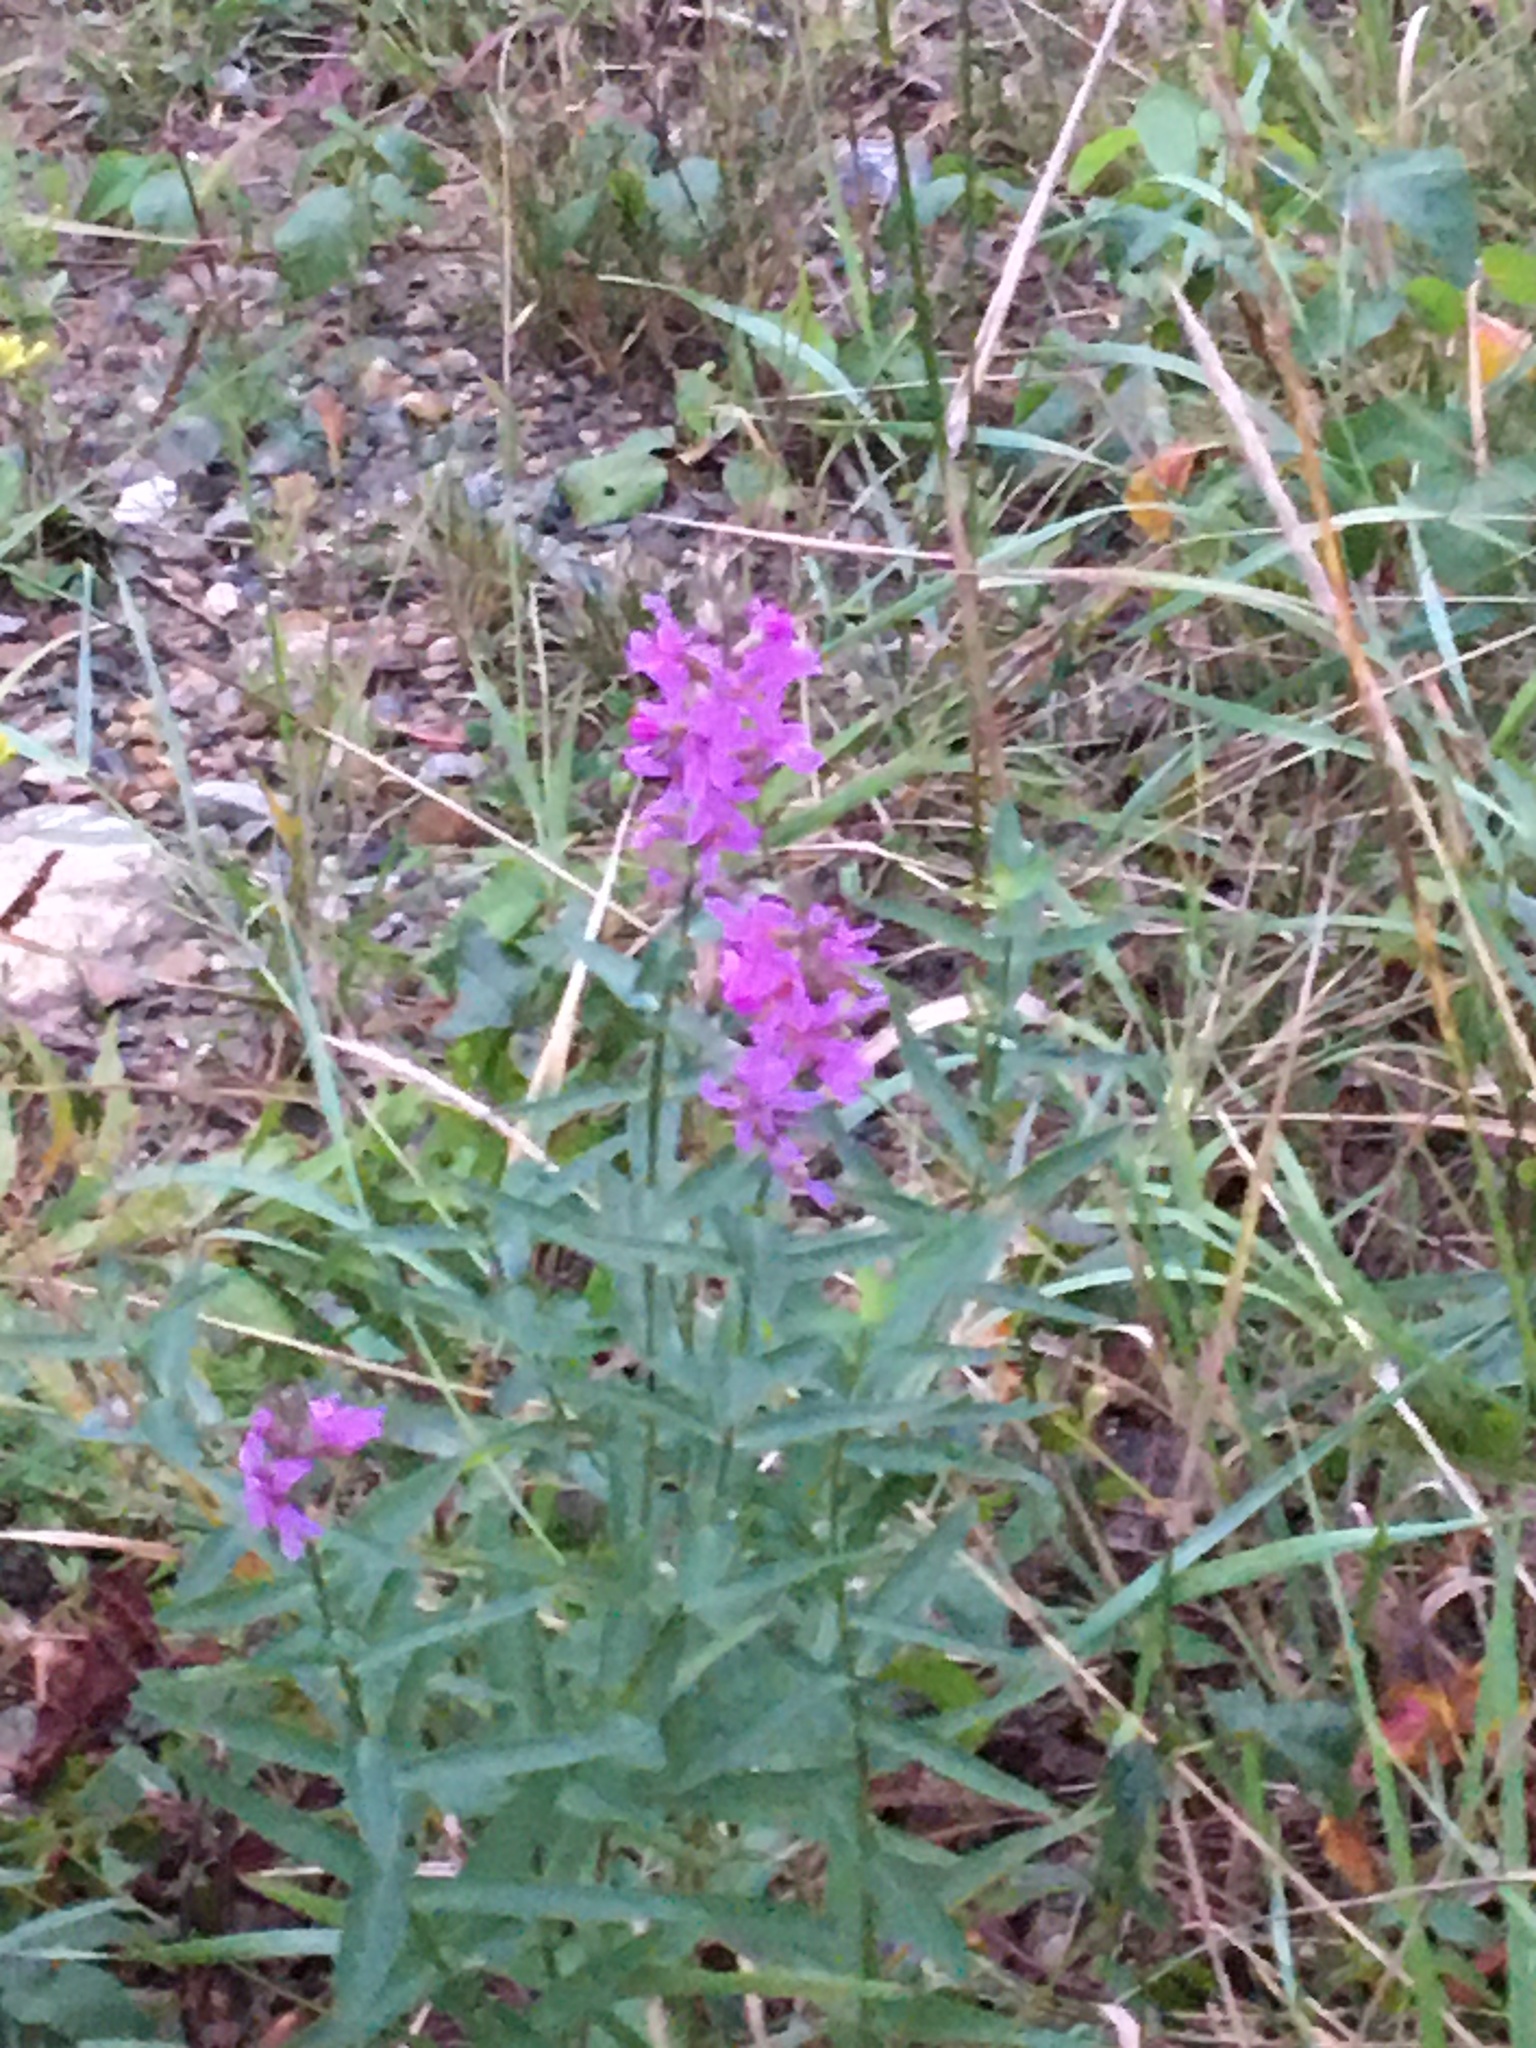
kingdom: Plantae
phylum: Tracheophyta
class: Magnoliopsida
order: Myrtales
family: Lythraceae
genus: Lythrum
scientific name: Lythrum salicaria
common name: Purple loosestrife
